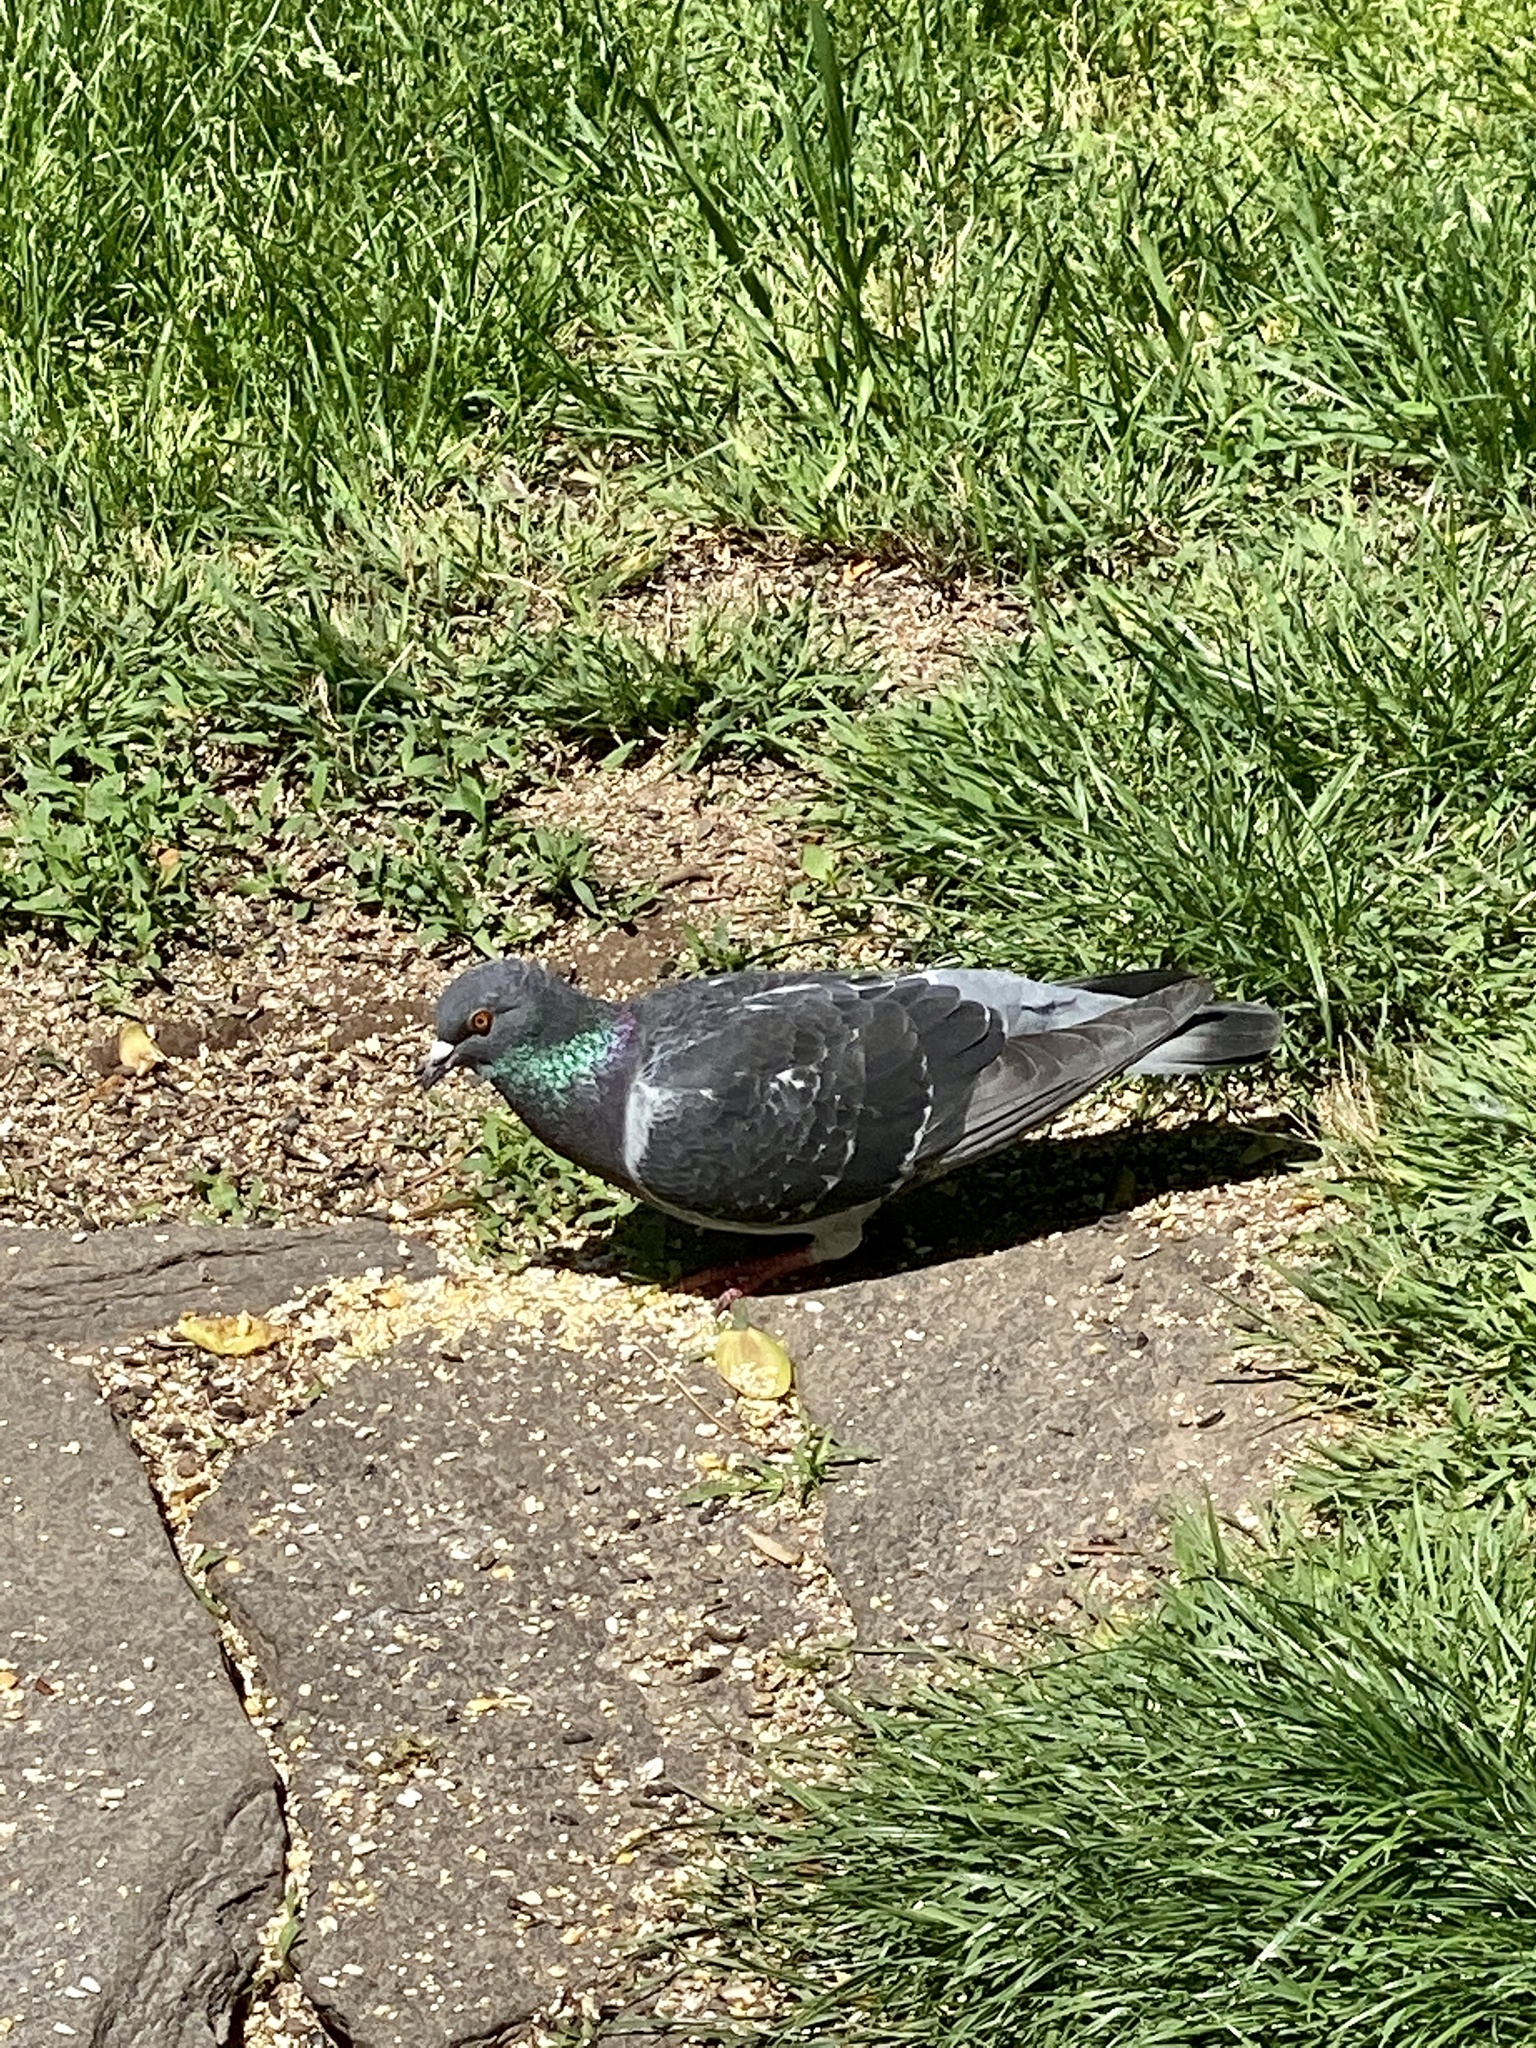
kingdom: Animalia
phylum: Chordata
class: Aves
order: Columbiformes
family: Columbidae
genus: Columba
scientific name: Columba livia
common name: Rock pigeon
